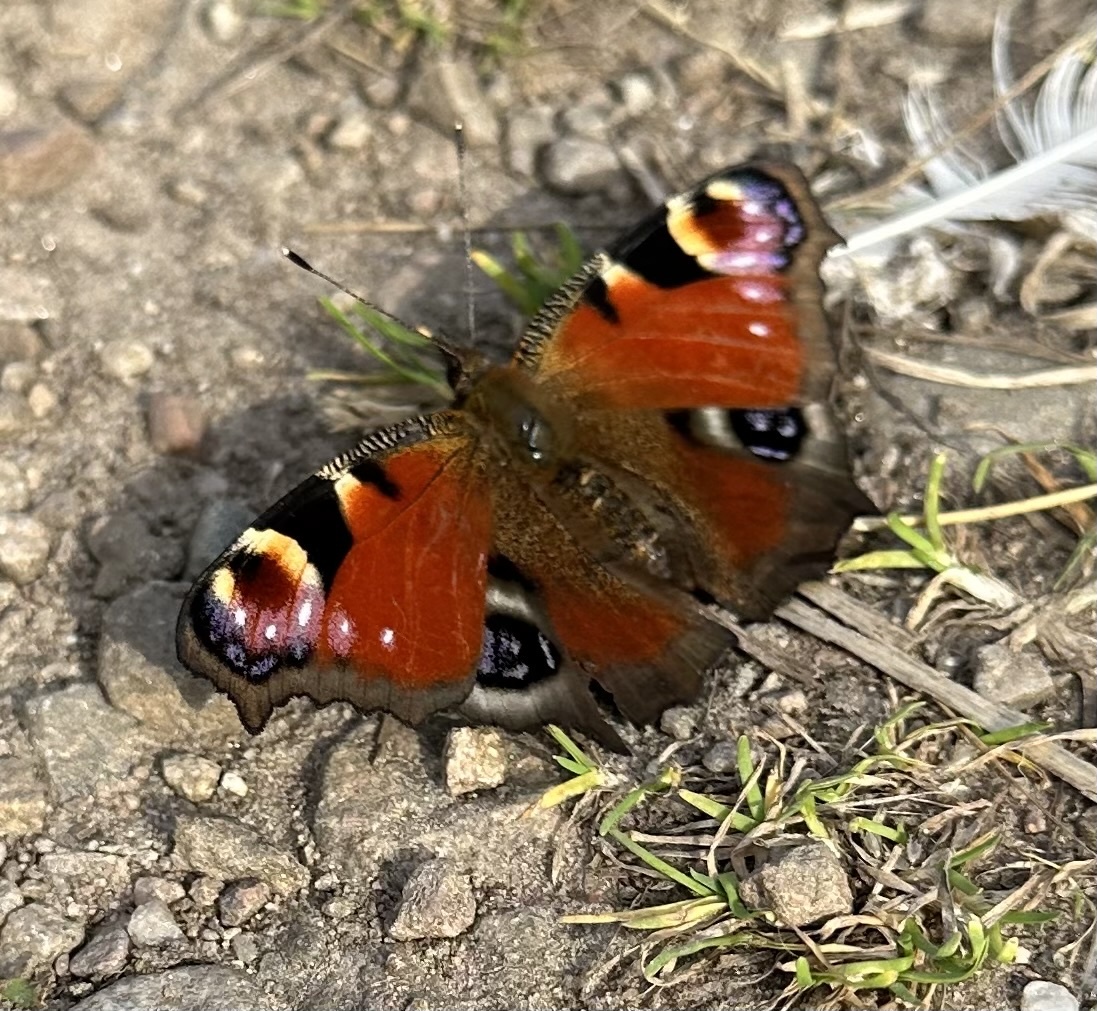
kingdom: Animalia
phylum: Arthropoda
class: Insecta
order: Lepidoptera
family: Nymphalidae
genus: Aglais
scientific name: Aglais io
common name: Peacock
